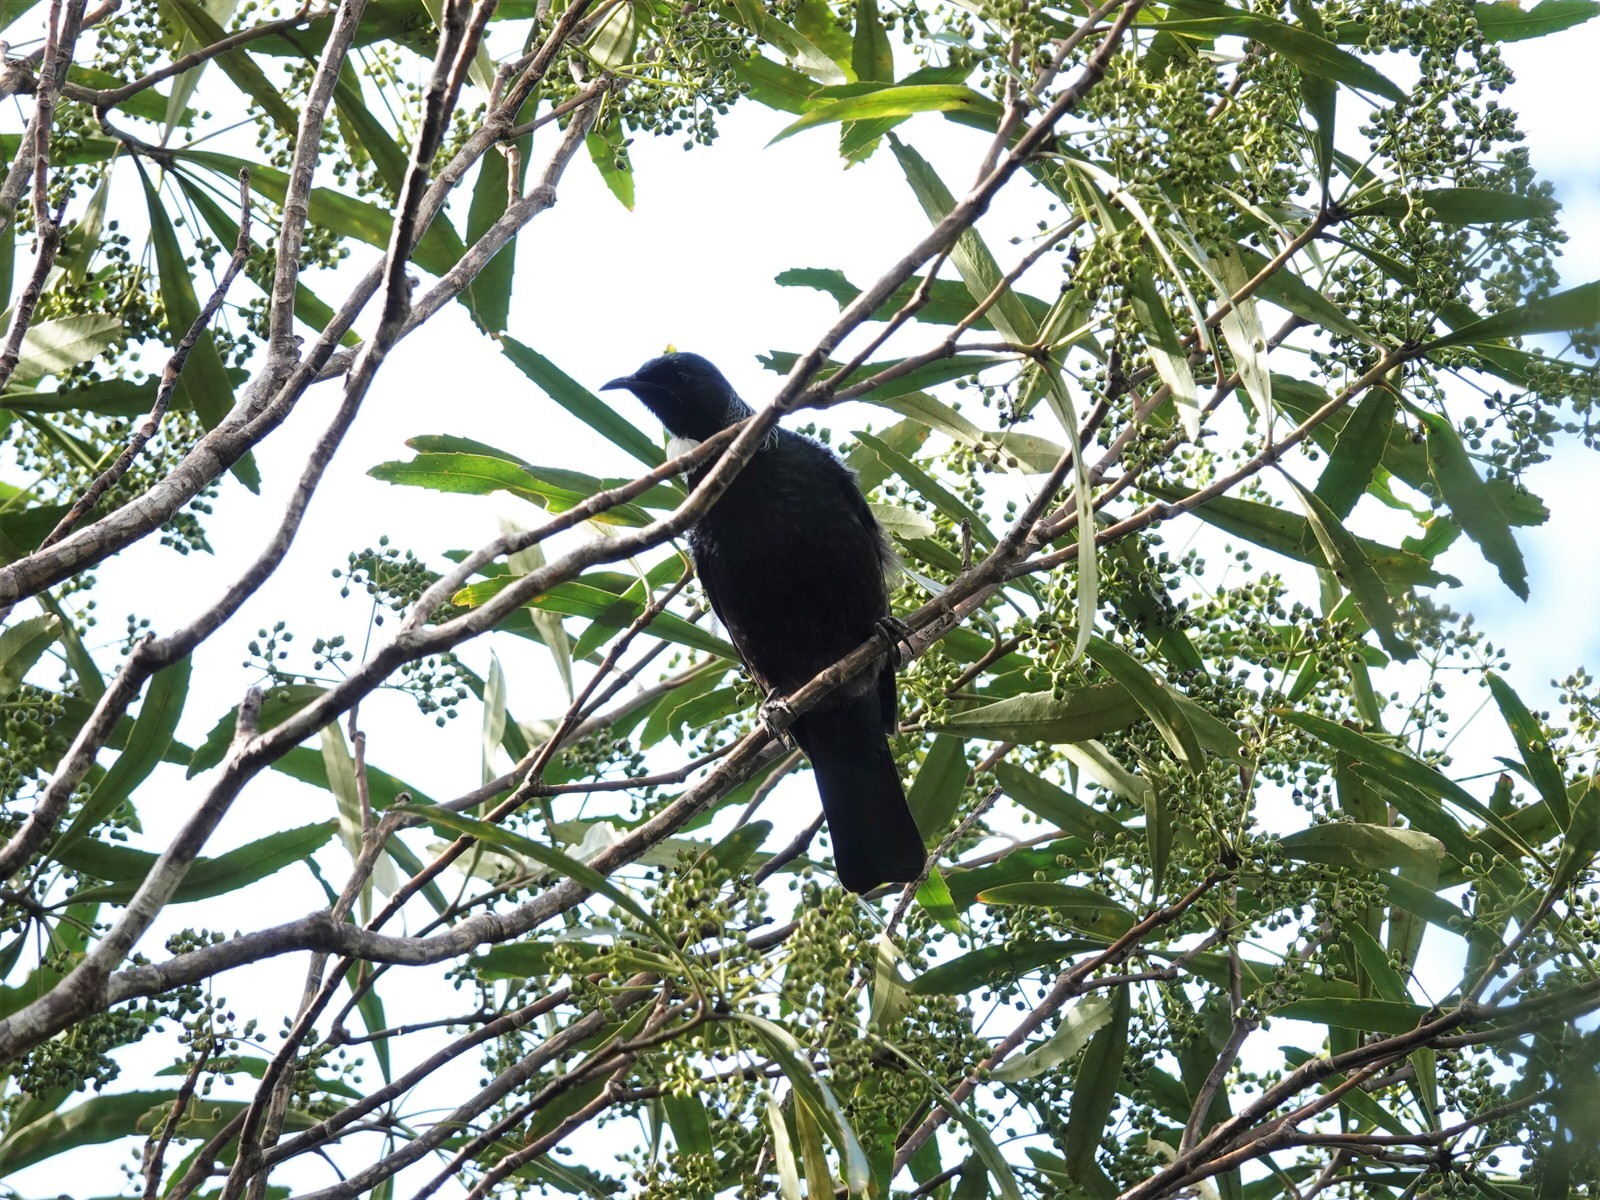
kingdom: Animalia
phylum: Chordata
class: Aves
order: Passeriformes
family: Meliphagidae
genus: Prosthemadera
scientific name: Prosthemadera novaeseelandiae
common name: Tui
